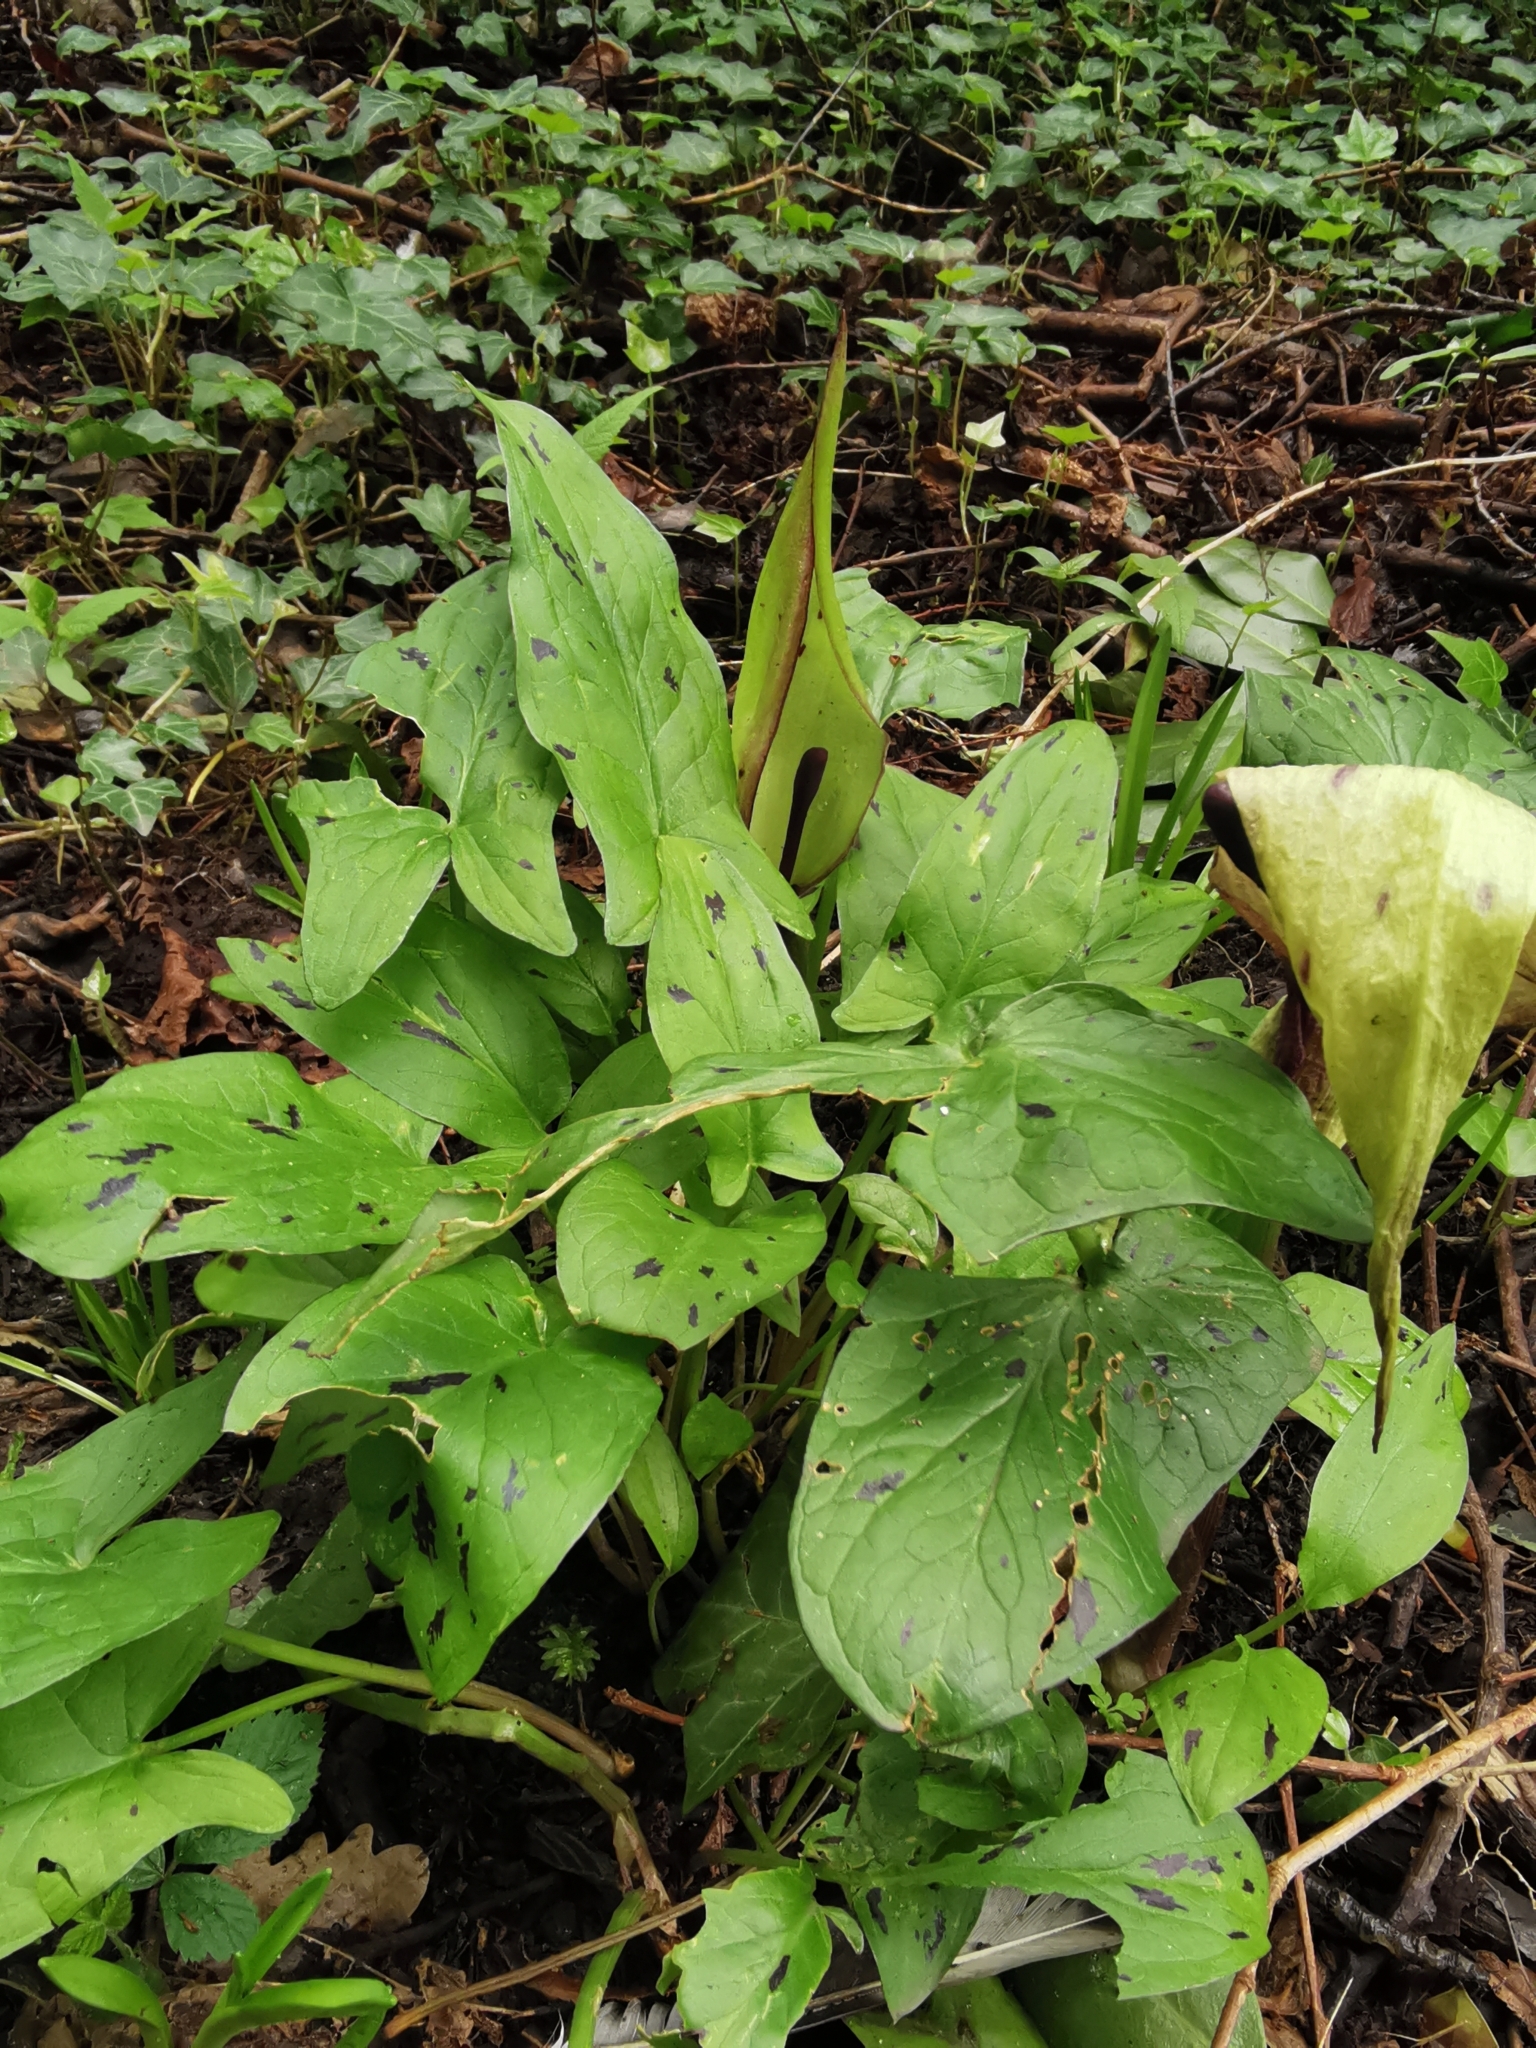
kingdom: Plantae
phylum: Tracheophyta
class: Liliopsida
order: Alismatales
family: Araceae
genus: Arum
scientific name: Arum maculatum
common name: Lords-and-ladies
